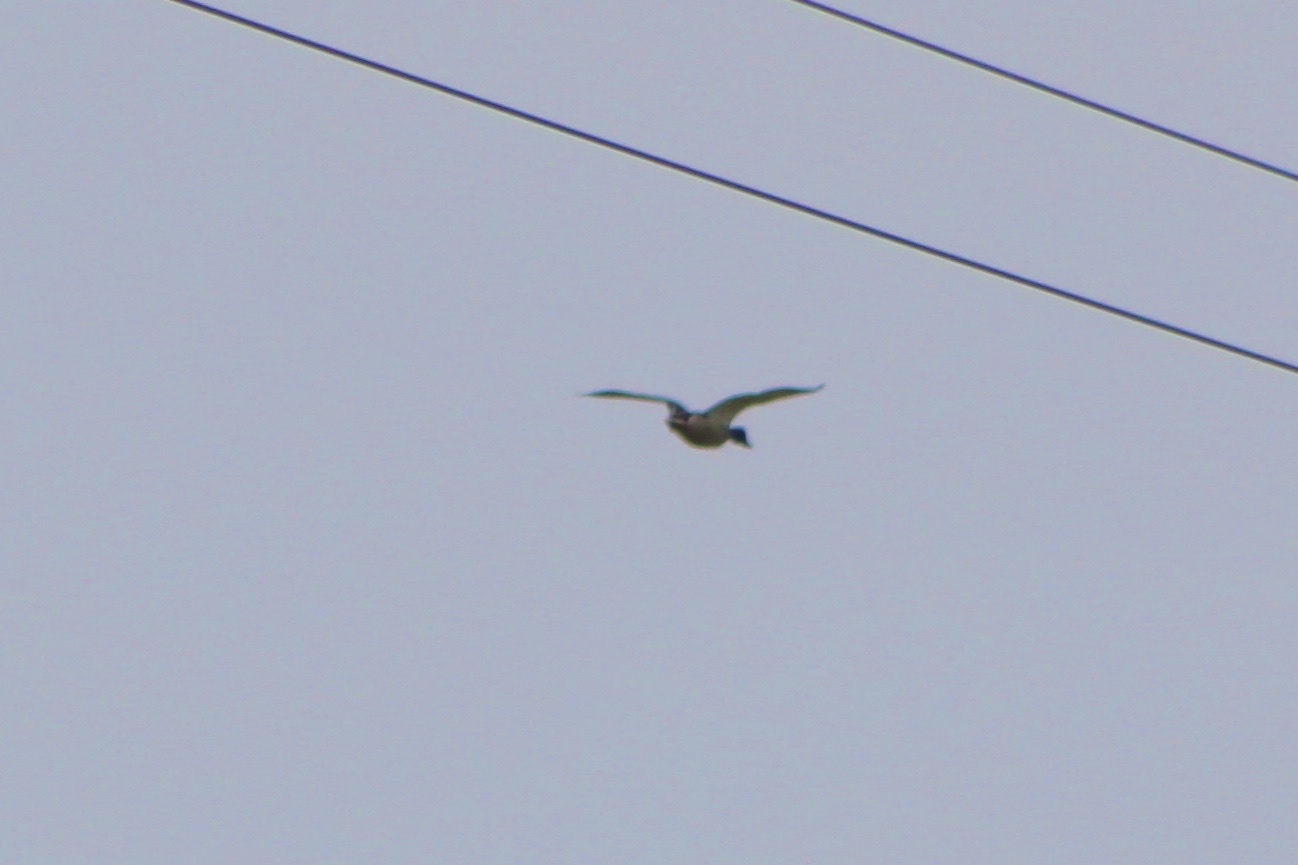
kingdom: Animalia
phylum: Chordata
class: Aves
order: Anseriformes
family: Anatidae
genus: Anas
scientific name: Anas platyrhynchos
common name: Mallard
